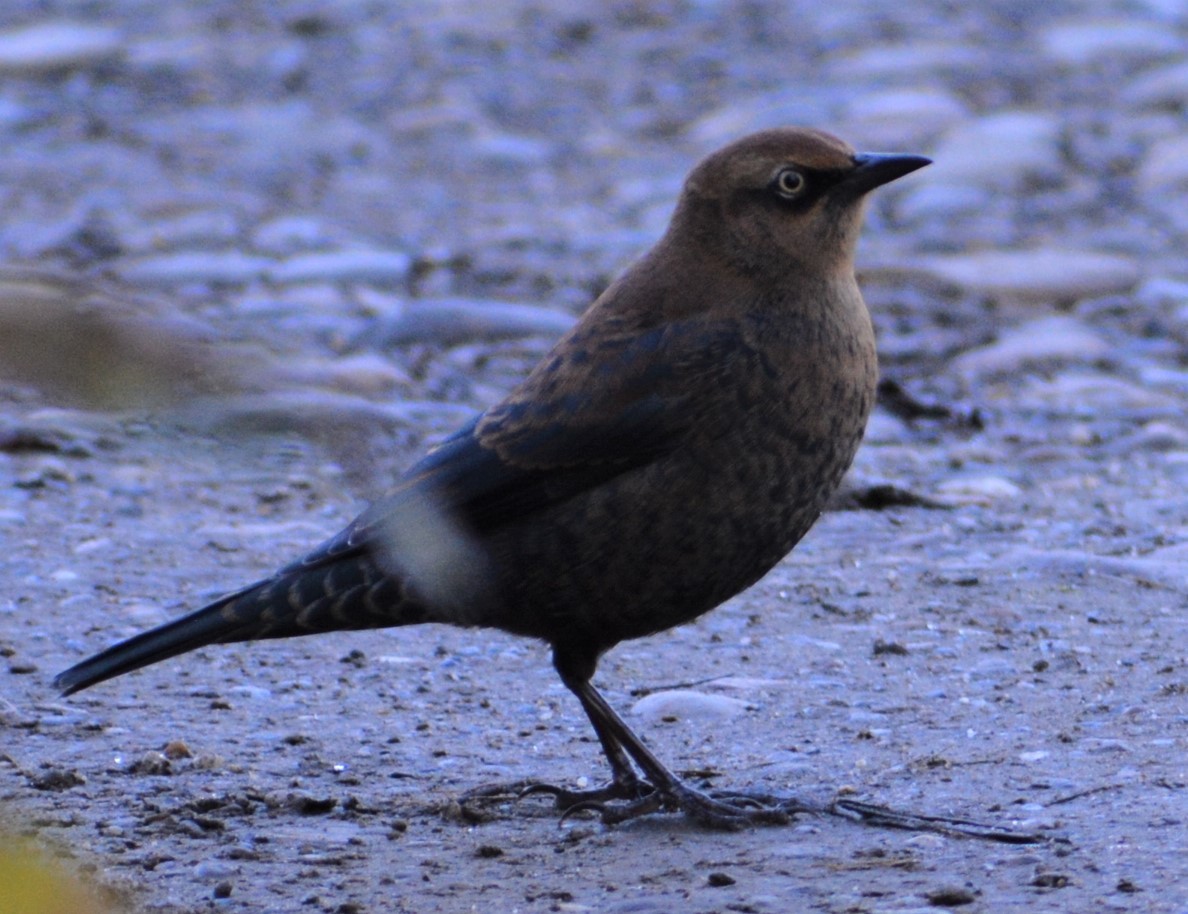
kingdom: Animalia
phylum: Chordata
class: Aves
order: Passeriformes
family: Icteridae
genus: Euphagus
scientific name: Euphagus carolinus
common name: Rusty blackbird
